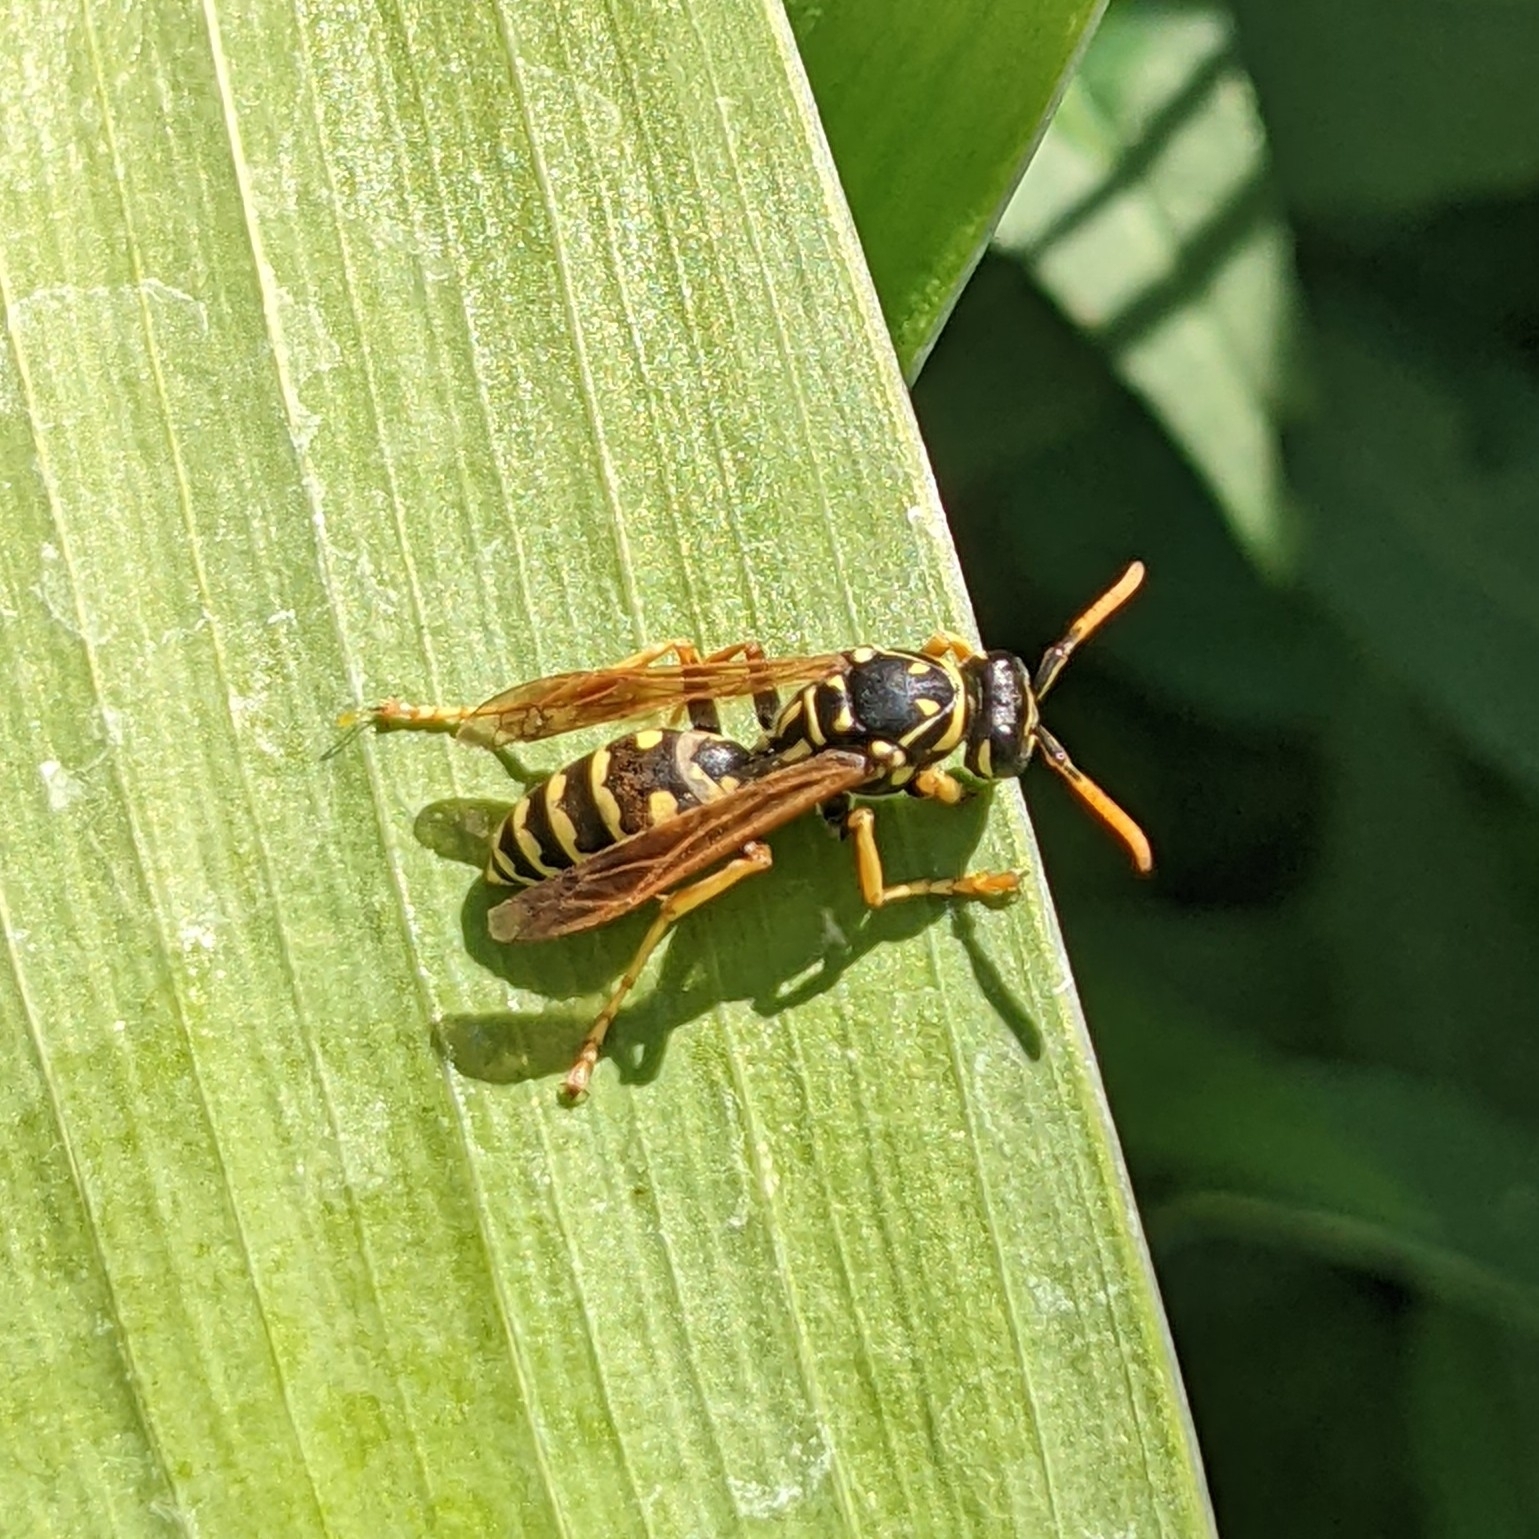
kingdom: Animalia
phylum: Arthropoda
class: Insecta
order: Hymenoptera
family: Eumenidae
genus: Polistes
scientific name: Polistes dominula
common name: Paper wasp
